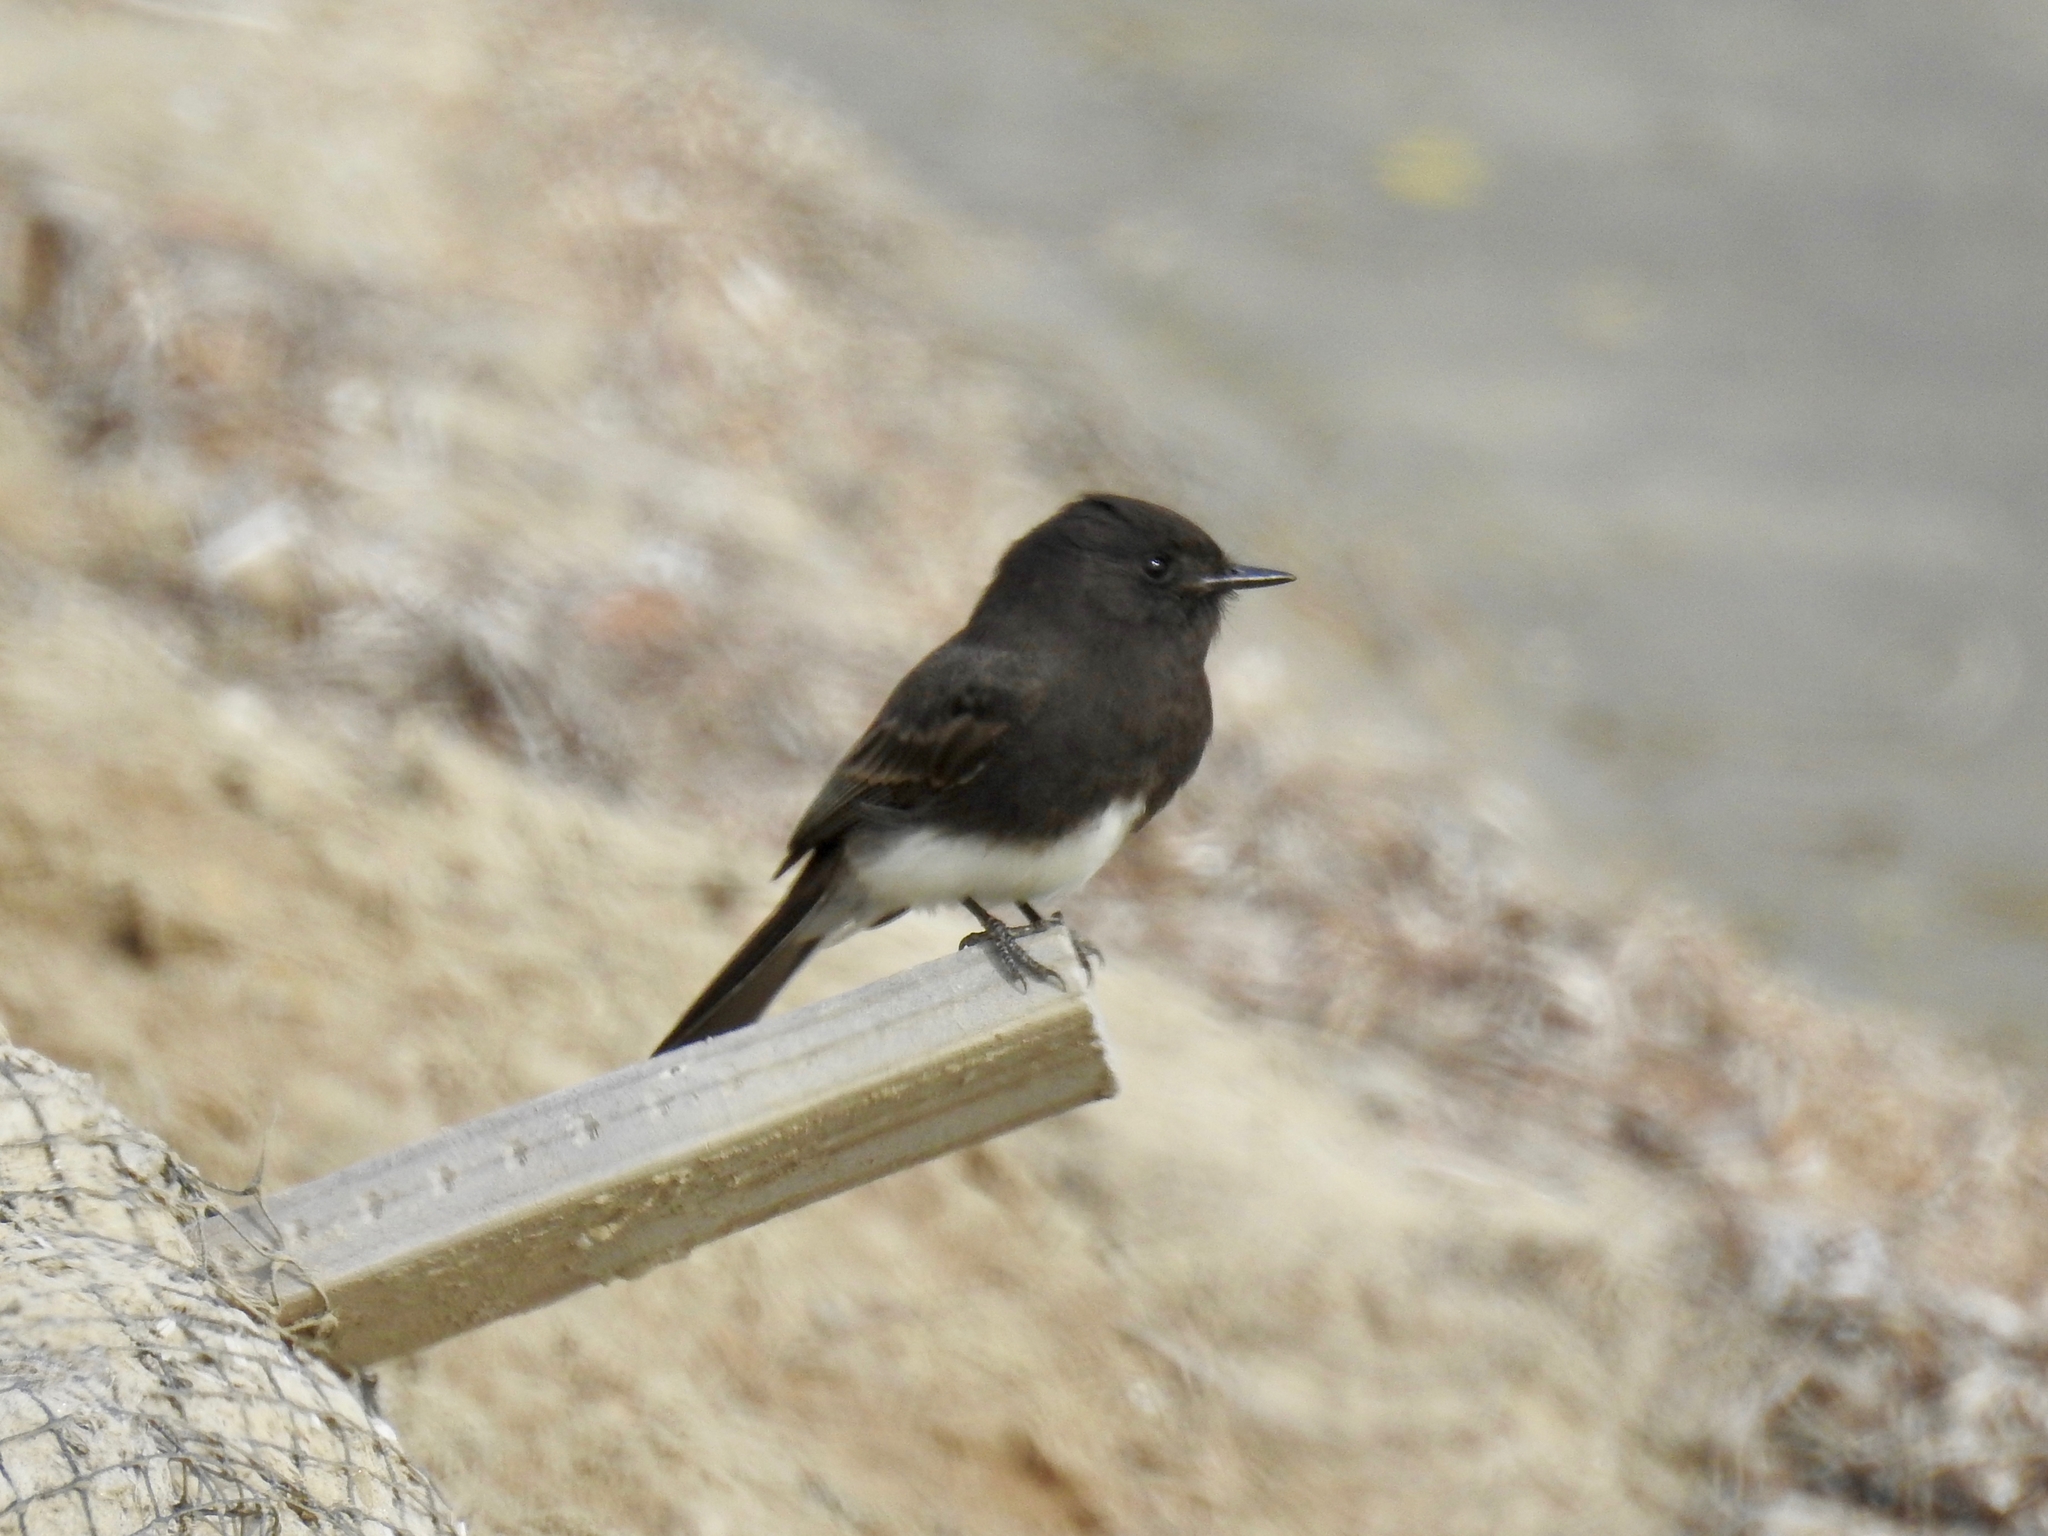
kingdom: Animalia
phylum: Chordata
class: Aves
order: Passeriformes
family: Tyrannidae
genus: Sayornis
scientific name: Sayornis nigricans
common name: Black phoebe
